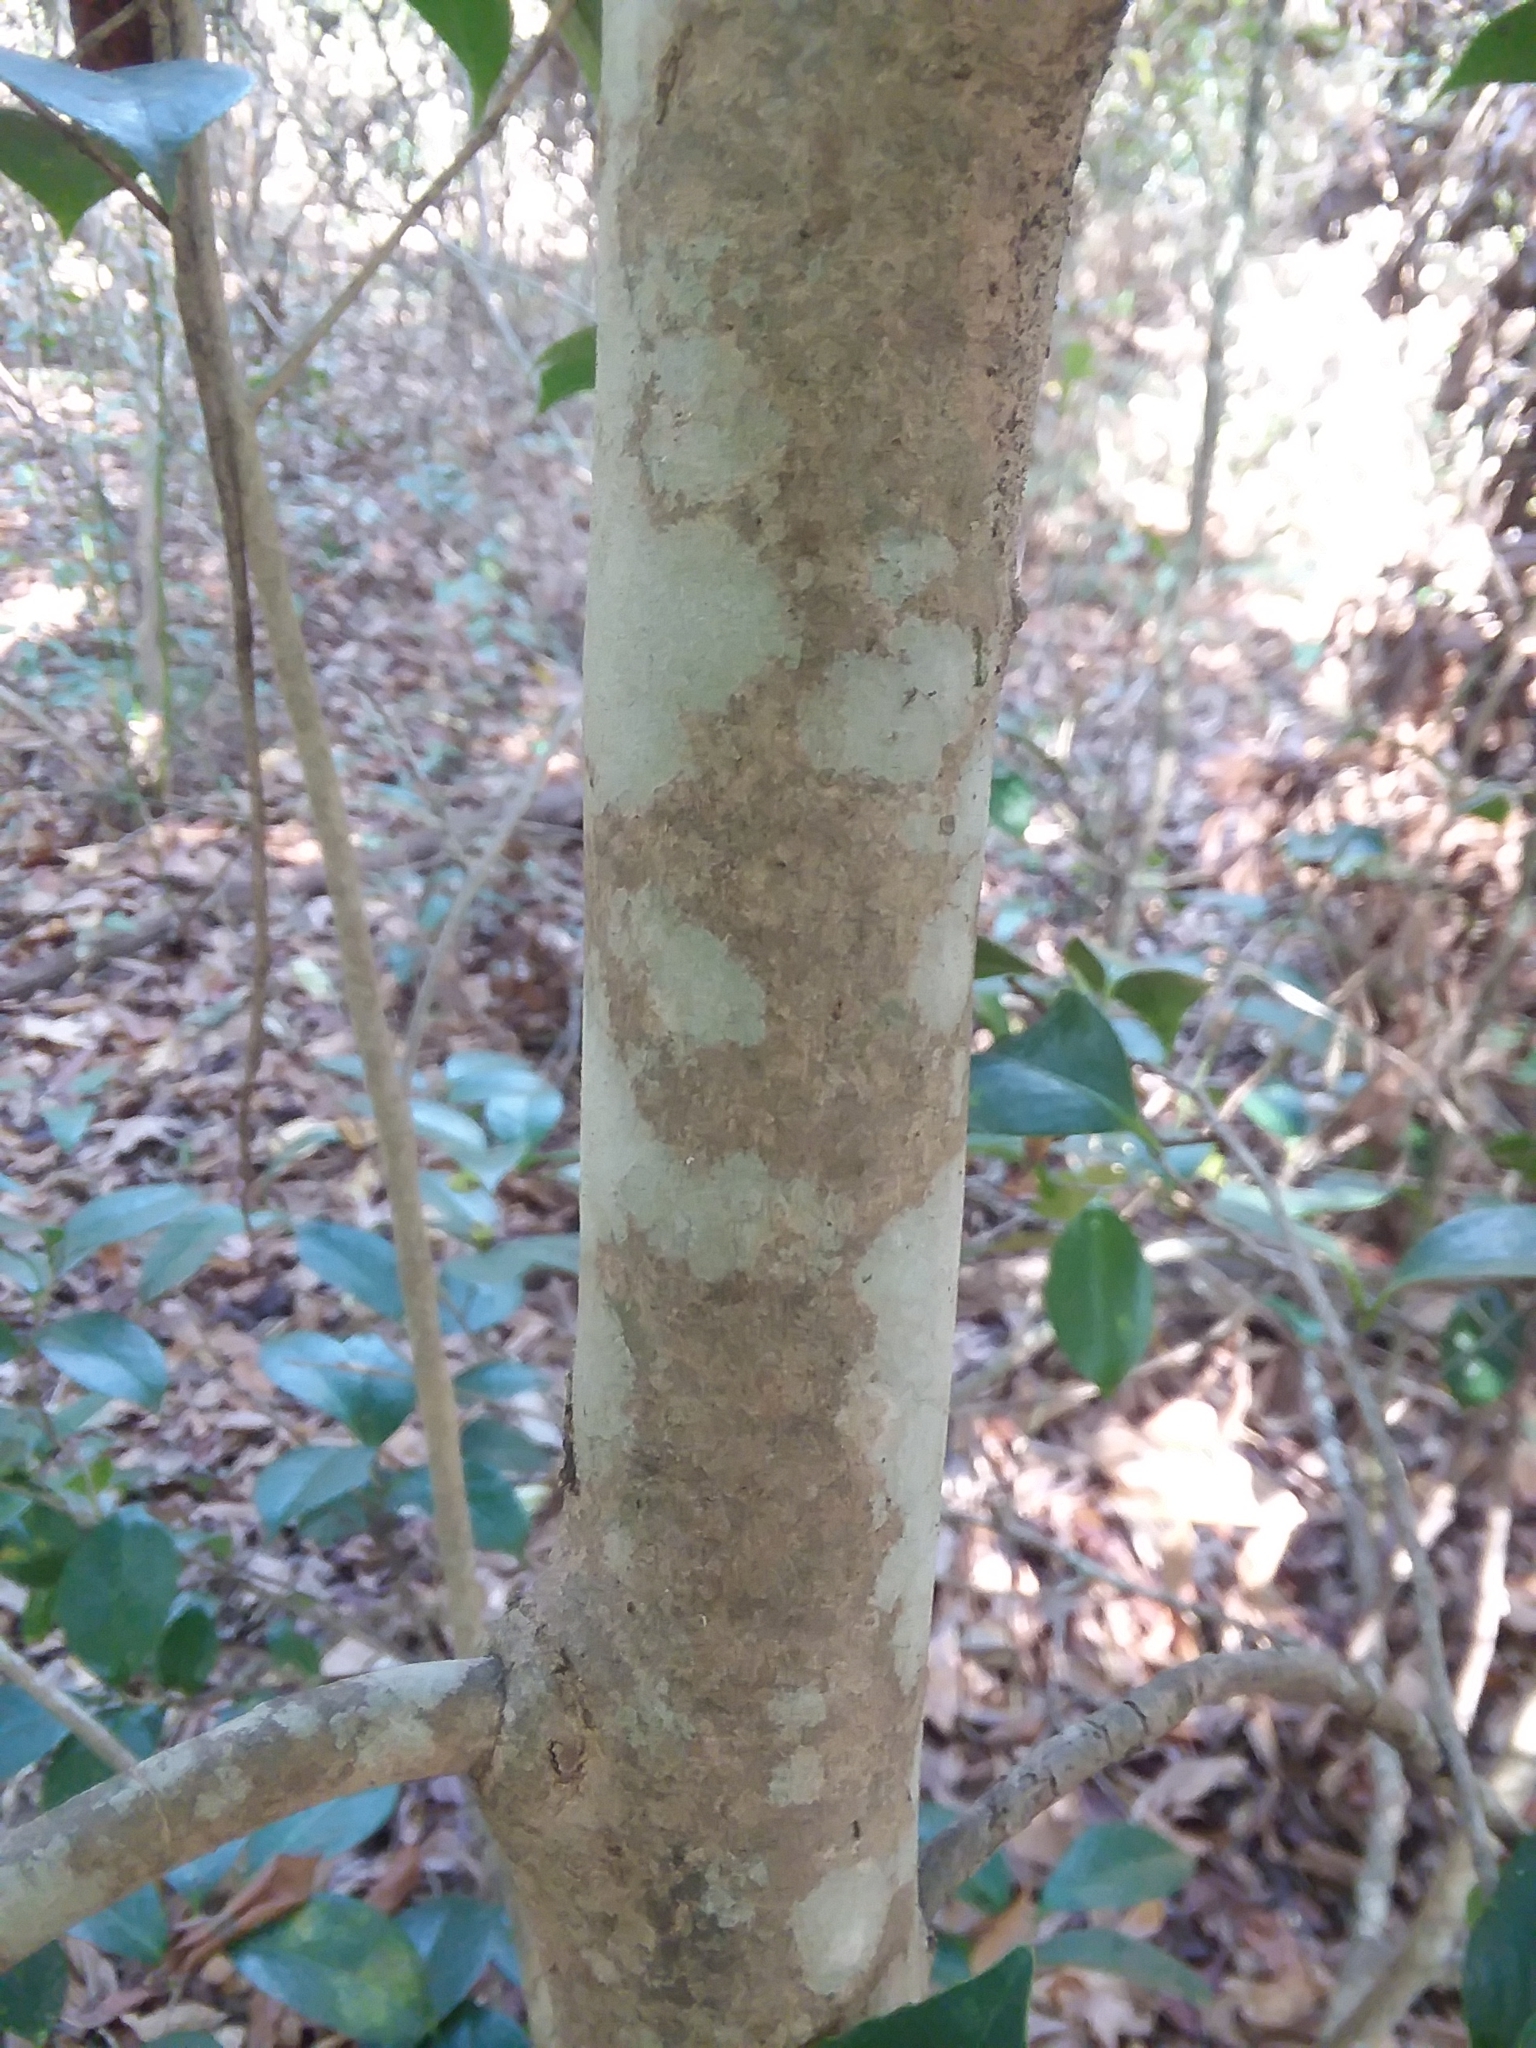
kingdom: Plantae
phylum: Tracheophyta
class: Magnoliopsida
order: Ericales
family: Theaceae
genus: Camellia
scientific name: Camellia japonica
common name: Camellia
